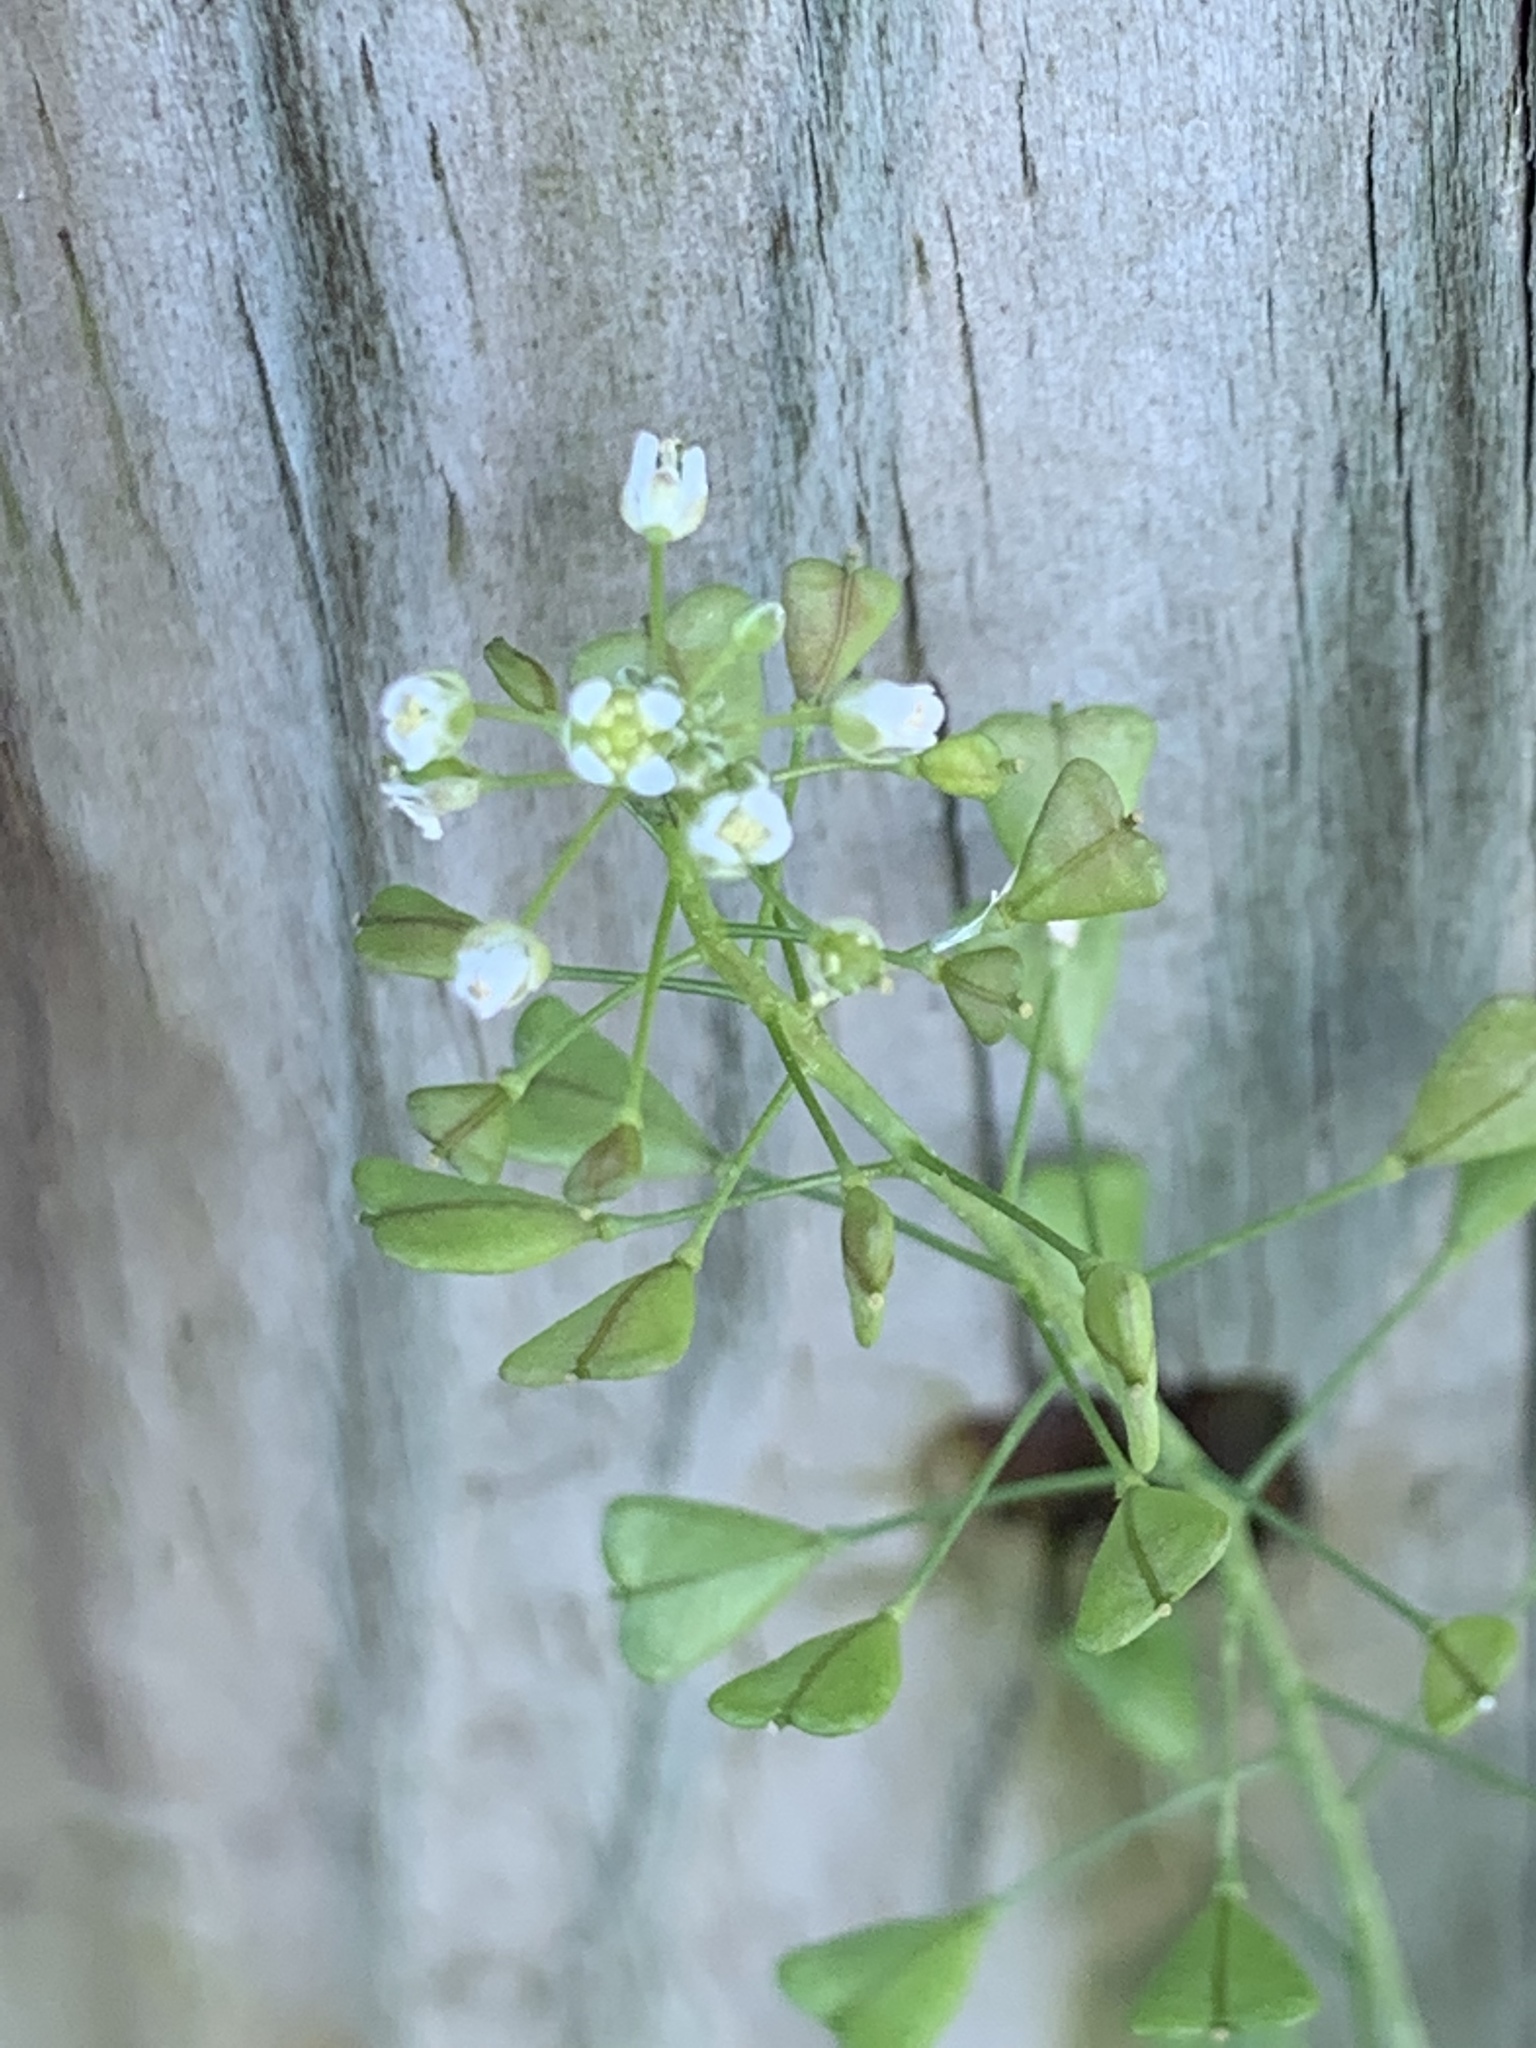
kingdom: Plantae
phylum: Tracheophyta
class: Magnoliopsida
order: Brassicales
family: Brassicaceae
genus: Capsella
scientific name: Capsella bursa-pastoris
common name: Shepherd's purse
